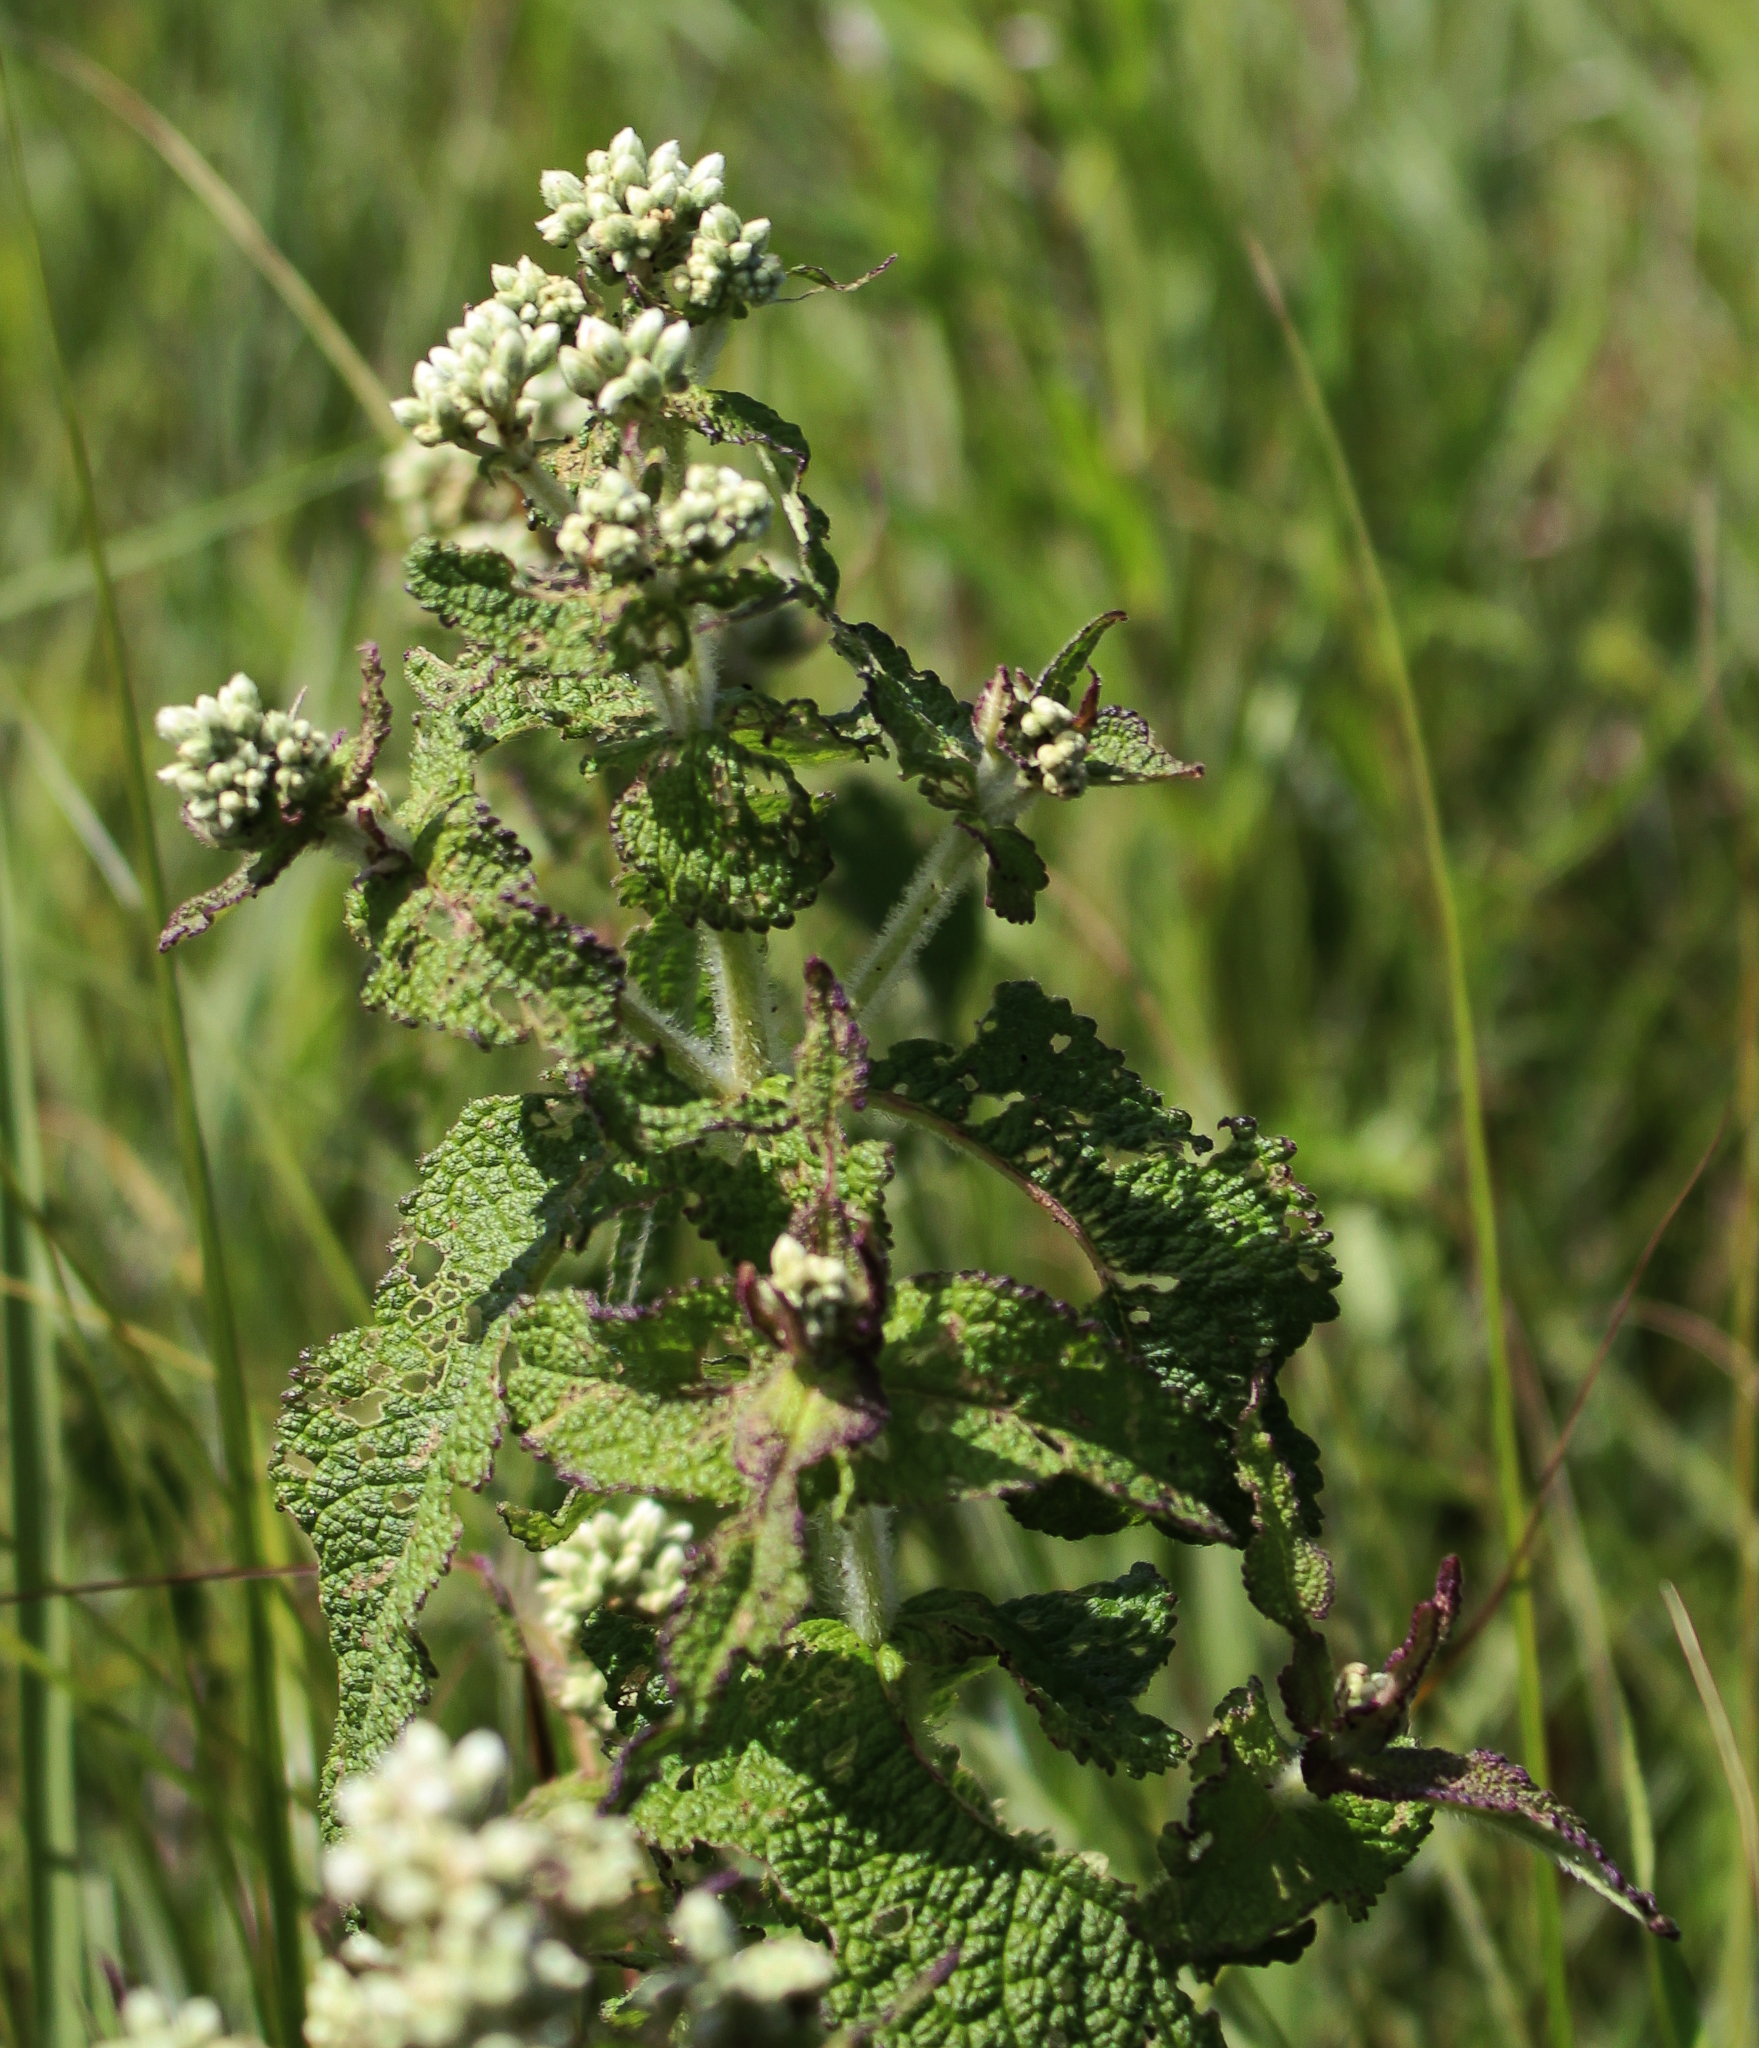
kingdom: Plantae
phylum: Tracheophyta
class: Magnoliopsida
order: Asterales
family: Asteraceae
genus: Eupatorium
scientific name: Eupatorium perfoliatum
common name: Boneset
